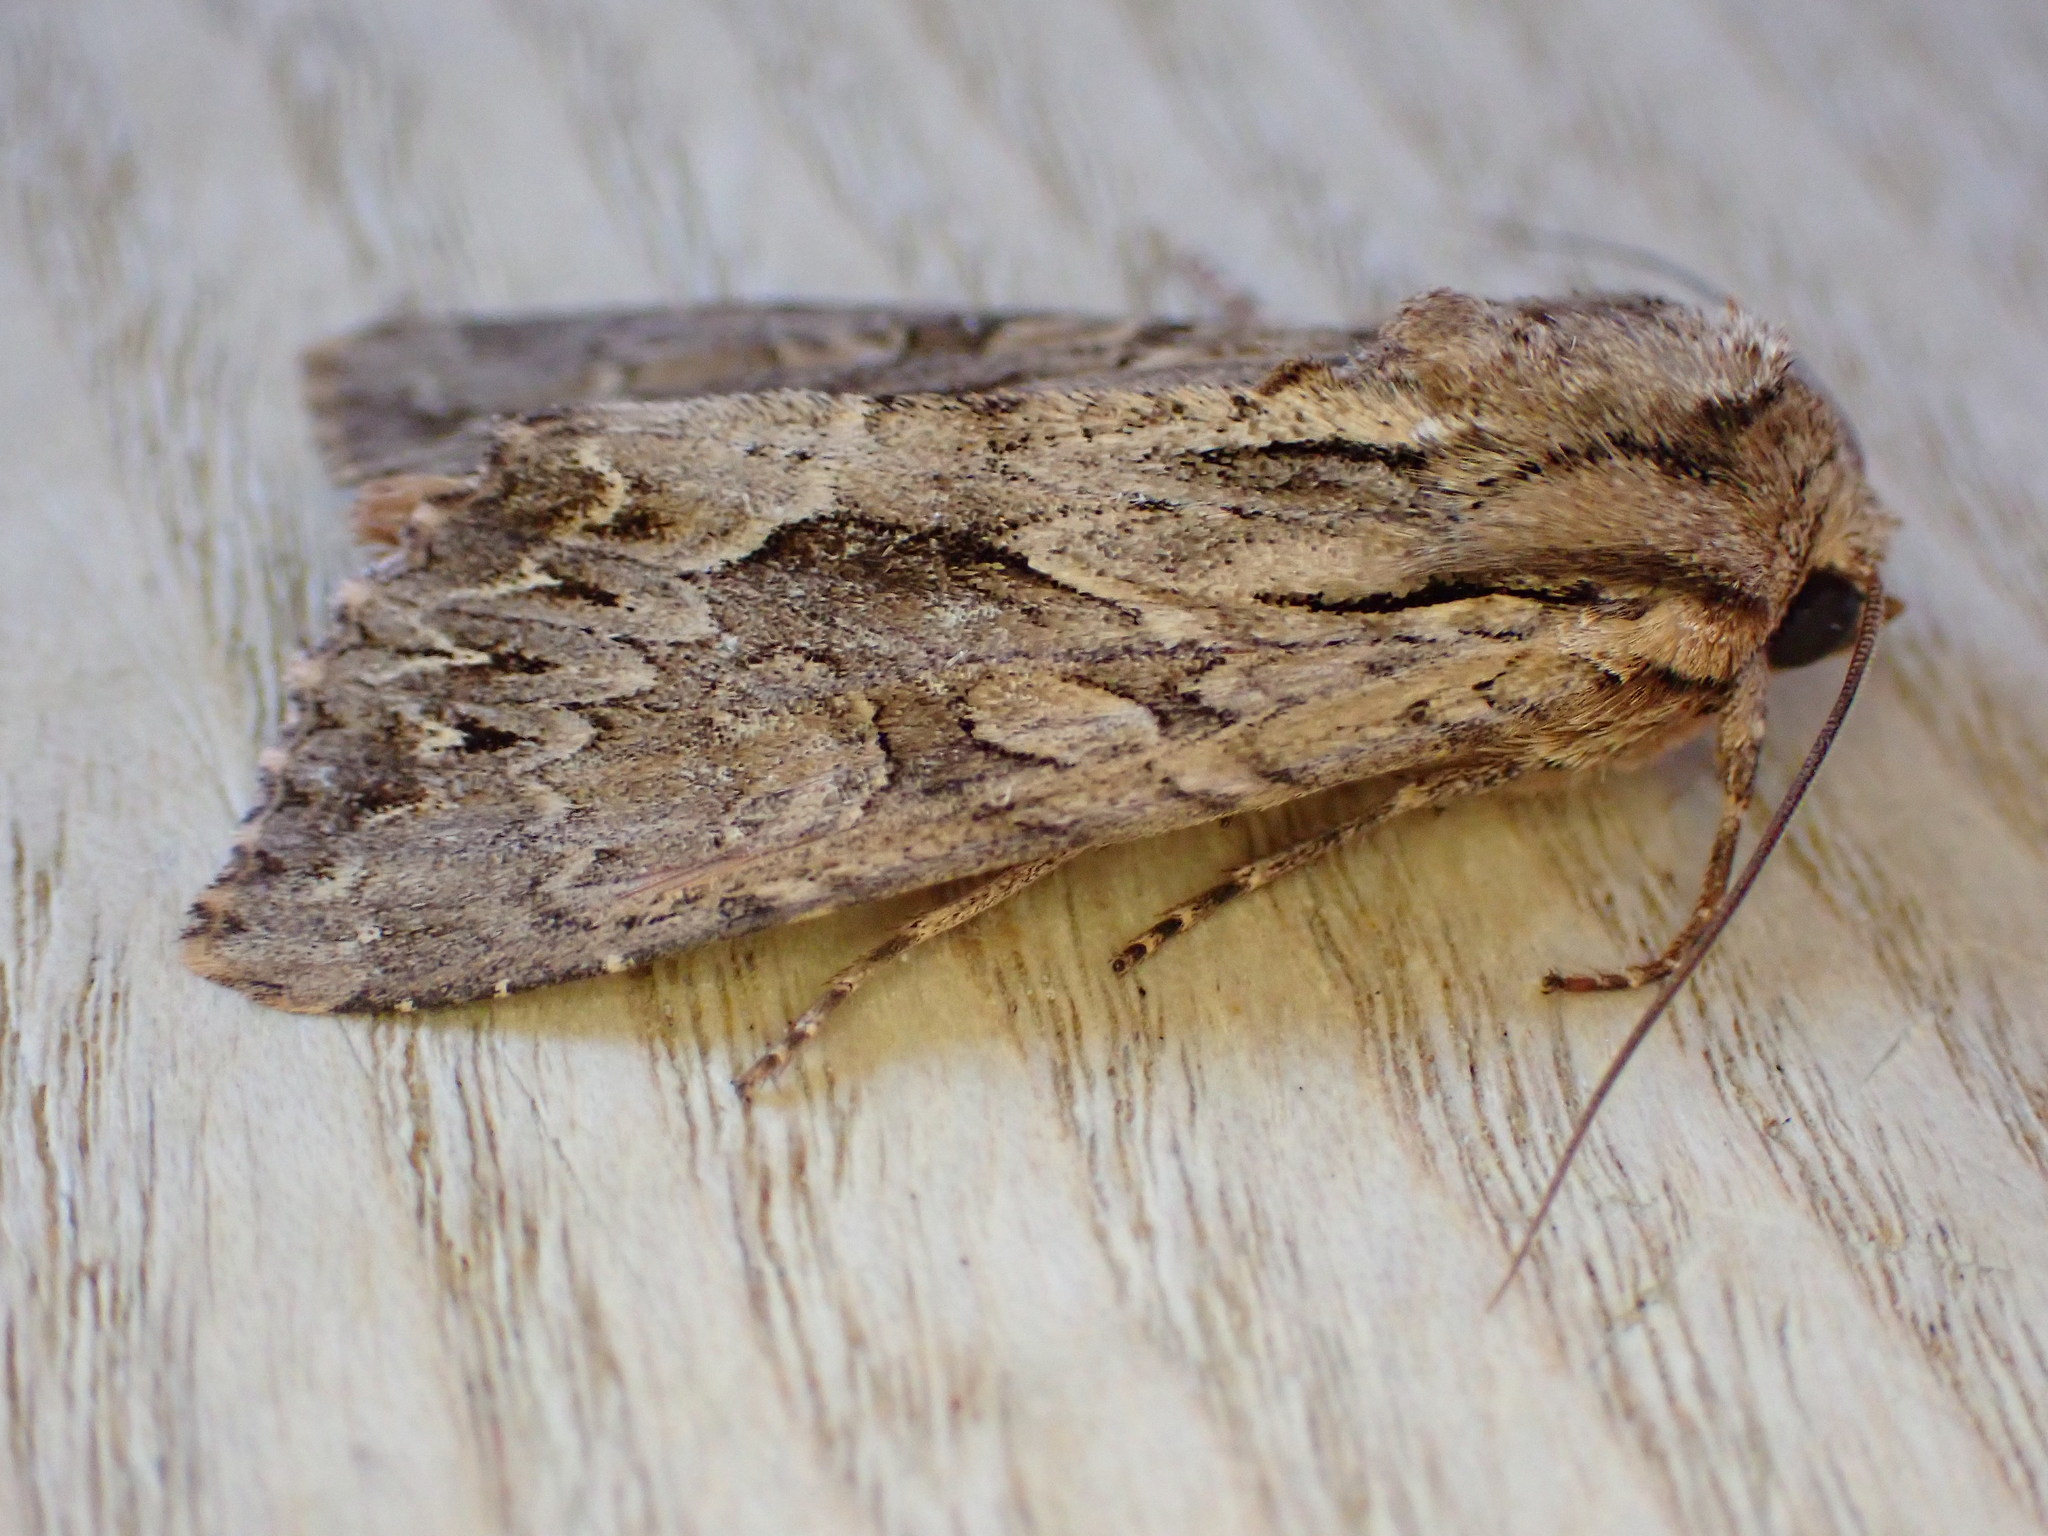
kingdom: Animalia
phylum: Arthropoda
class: Insecta
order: Lepidoptera
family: Noctuidae
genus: Apamea
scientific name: Apamea monoglypha
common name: Dark arches
